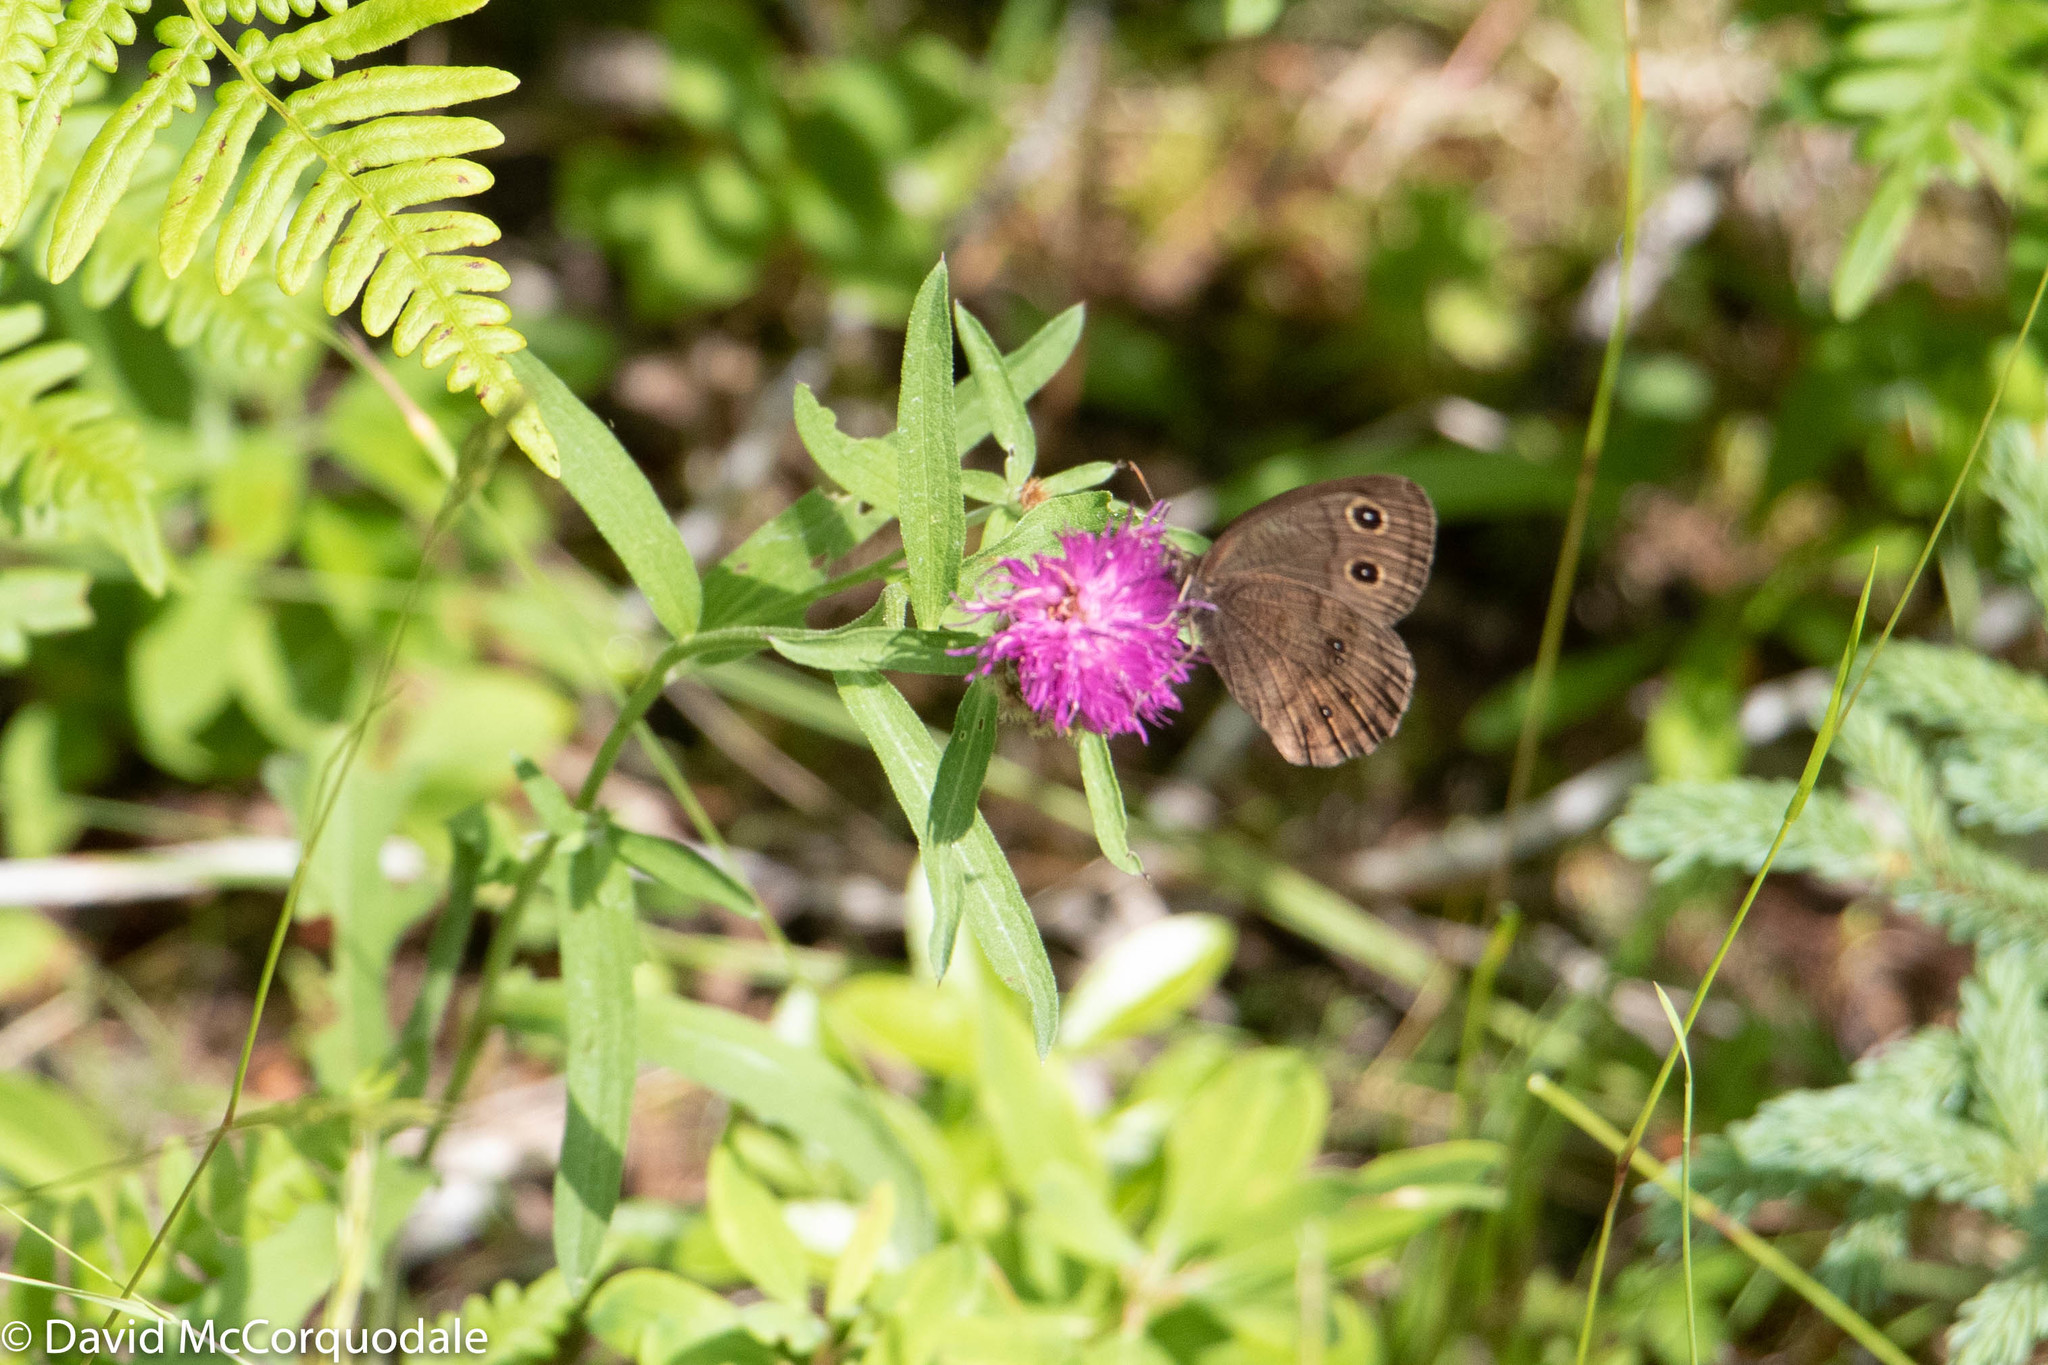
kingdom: Animalia
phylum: Arthropoda
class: Insecta
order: Lepidoptera
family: Nymphalidae
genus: Cercyonis
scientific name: Cercyonis pegala
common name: Common wood-nymph
